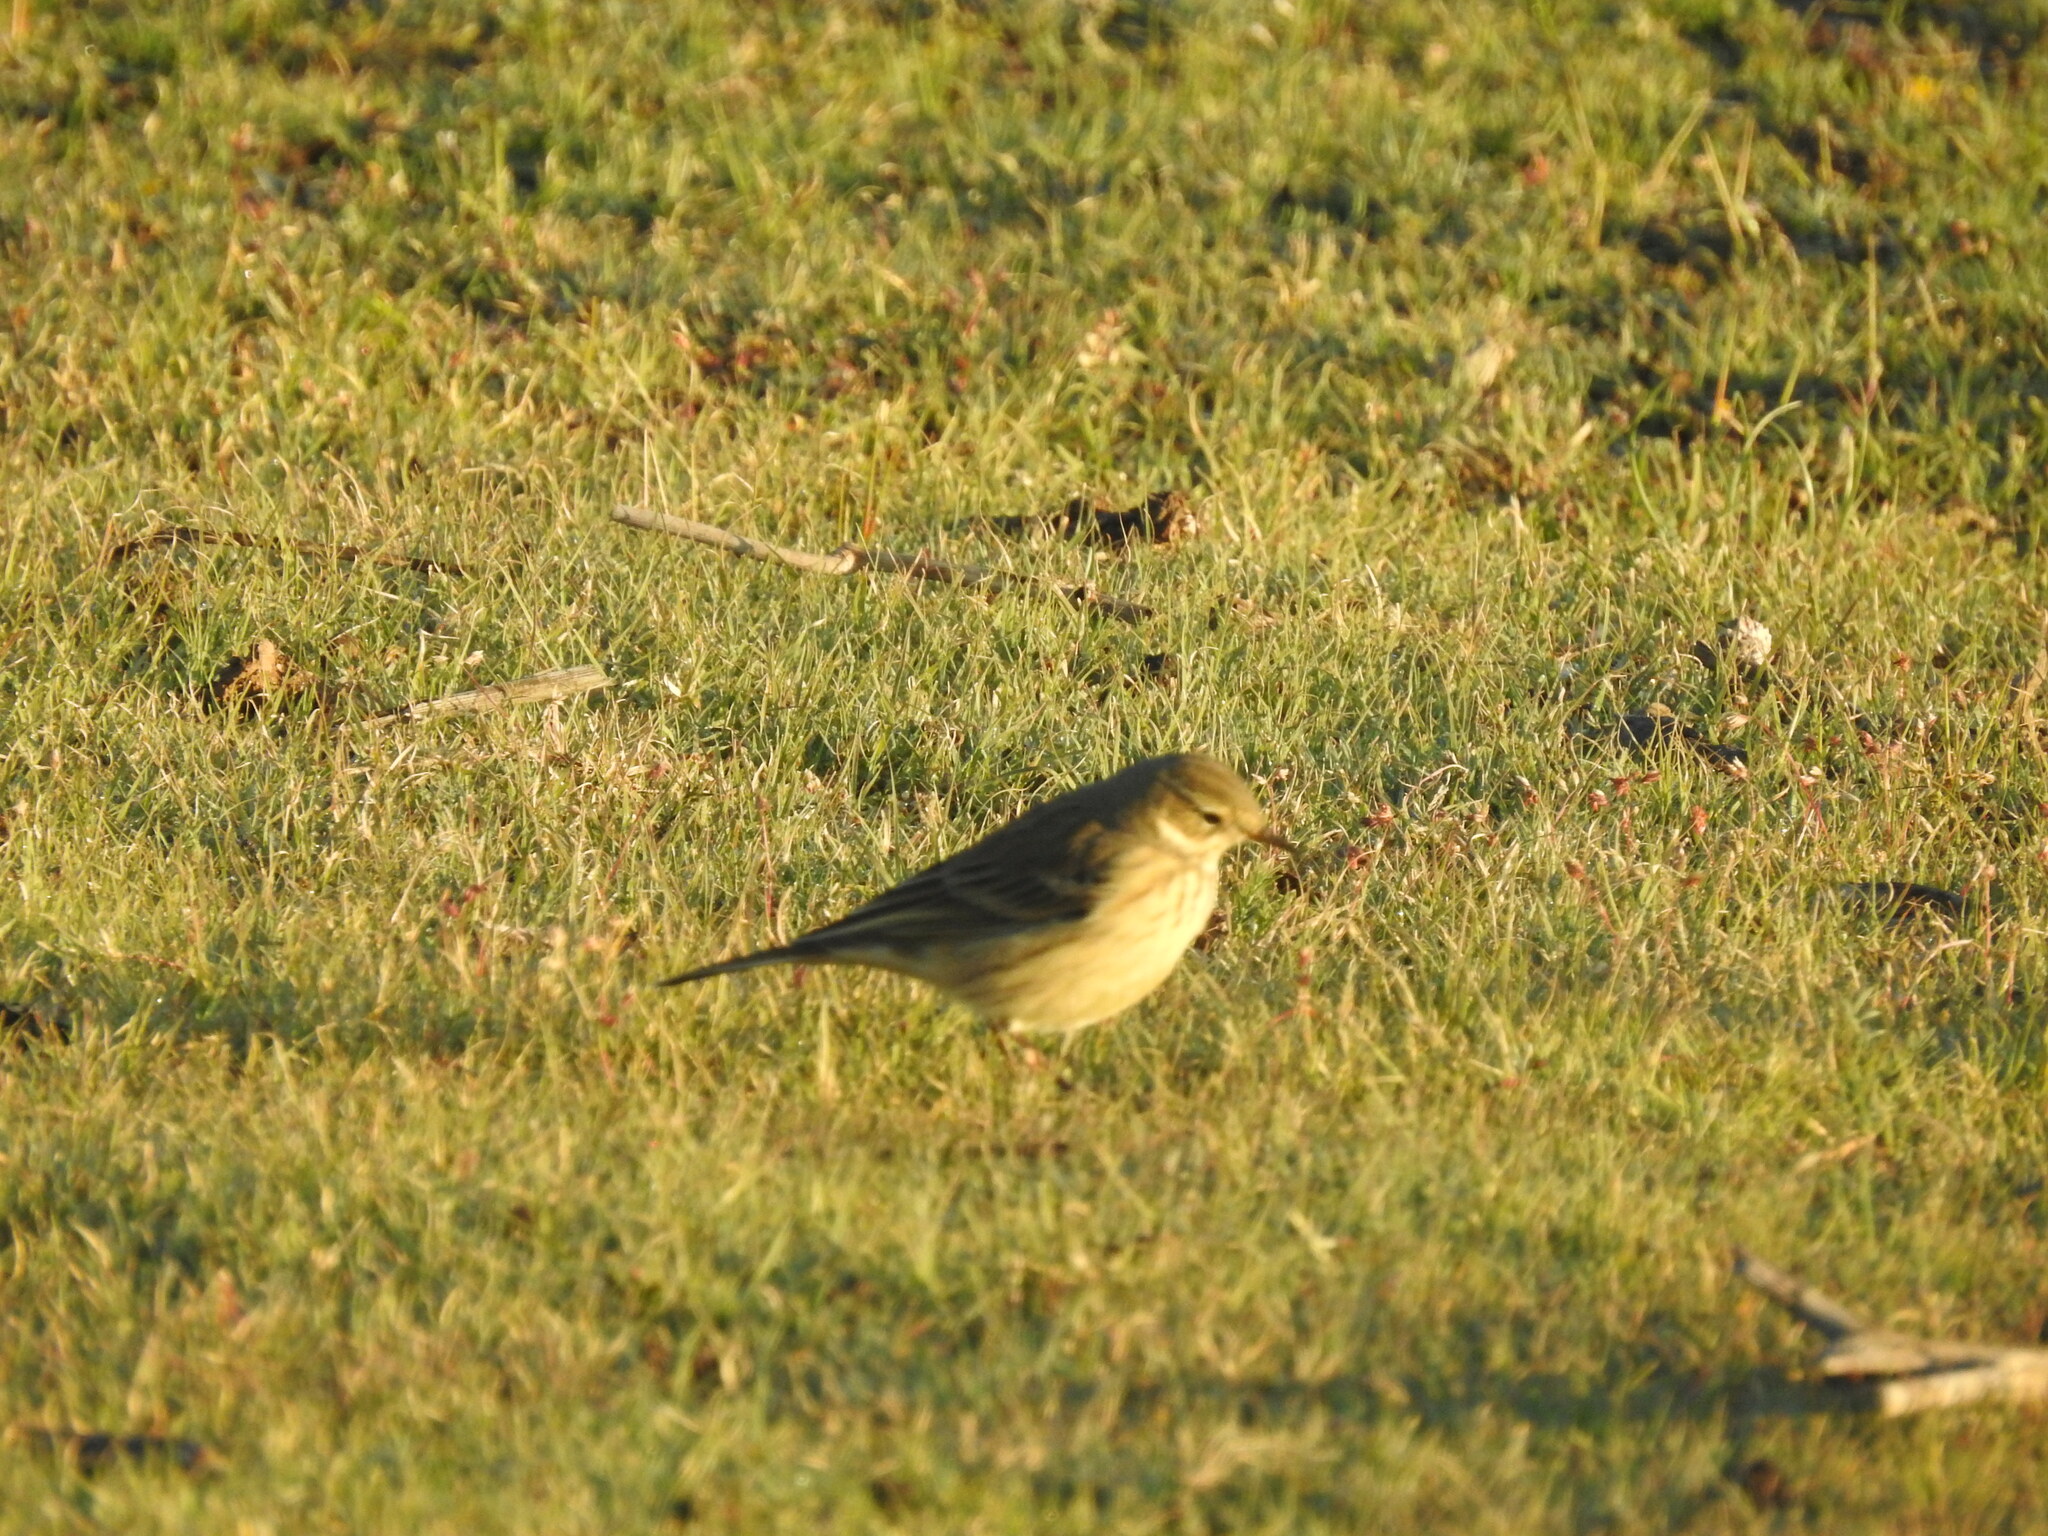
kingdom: Animalia
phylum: Chordata
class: Aves
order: Passeriformes
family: Motacillidae
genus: Anthus
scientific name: Anthus rubescens
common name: Buff-bellied pipit
